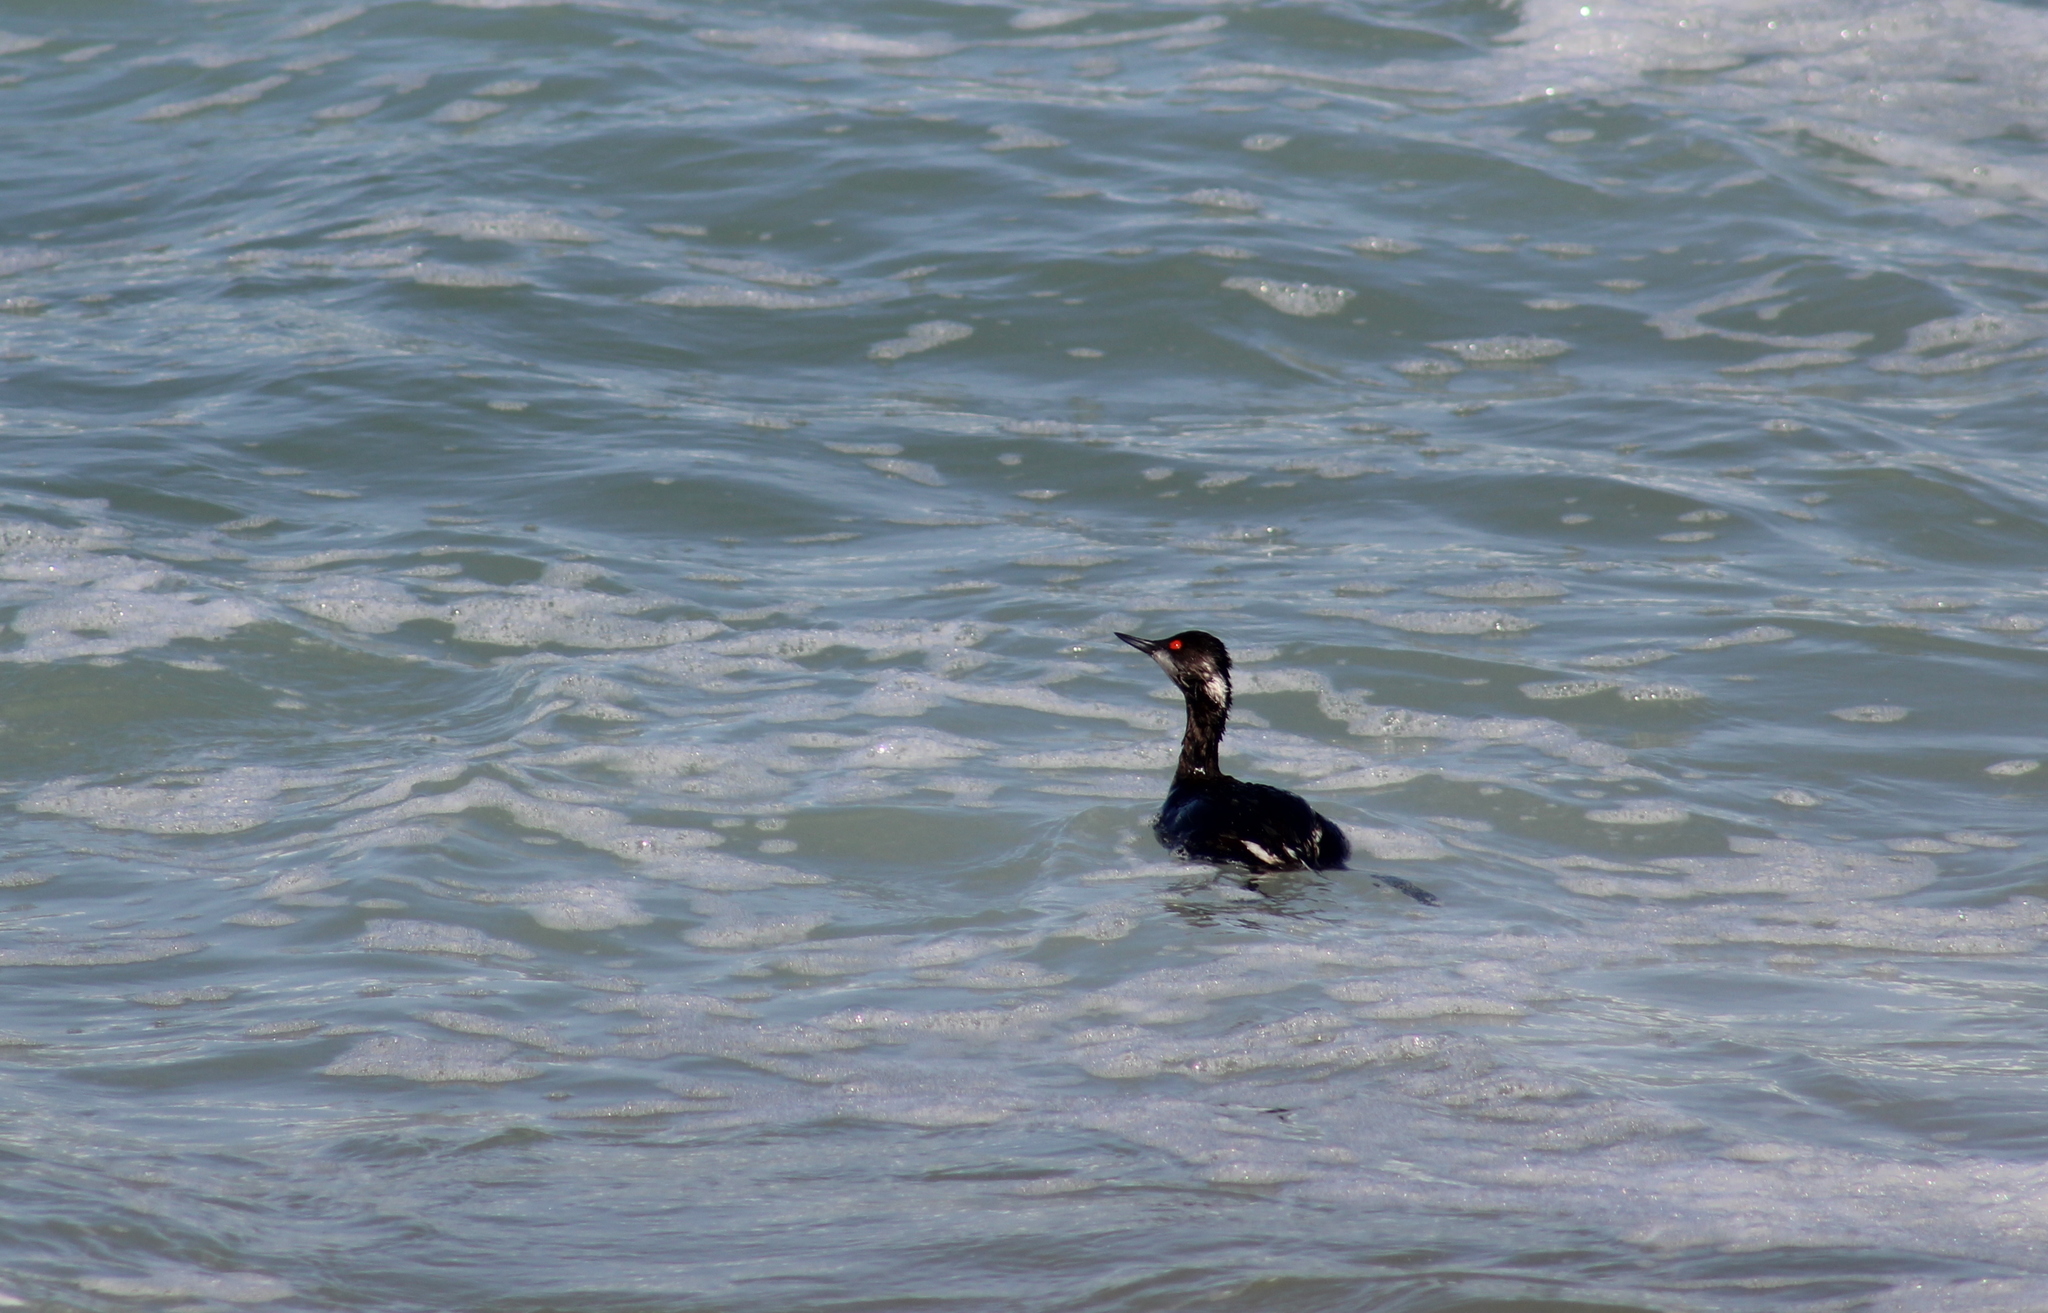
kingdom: Animalia
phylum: Chordata
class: Aves
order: Podicipediformes
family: Podicipedidae
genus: Podiceps
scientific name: Podiceps nigricollis
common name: Black-necked grebe
